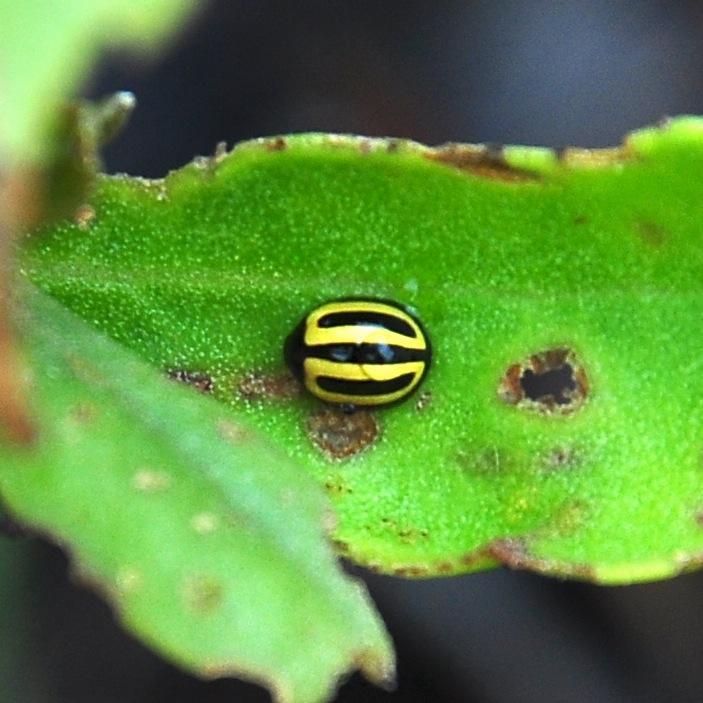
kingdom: Animalia
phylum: Arthropoda
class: Insecta
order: Coleoptera
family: Chrysomelidae
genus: Argopistes
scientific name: Argopistes
